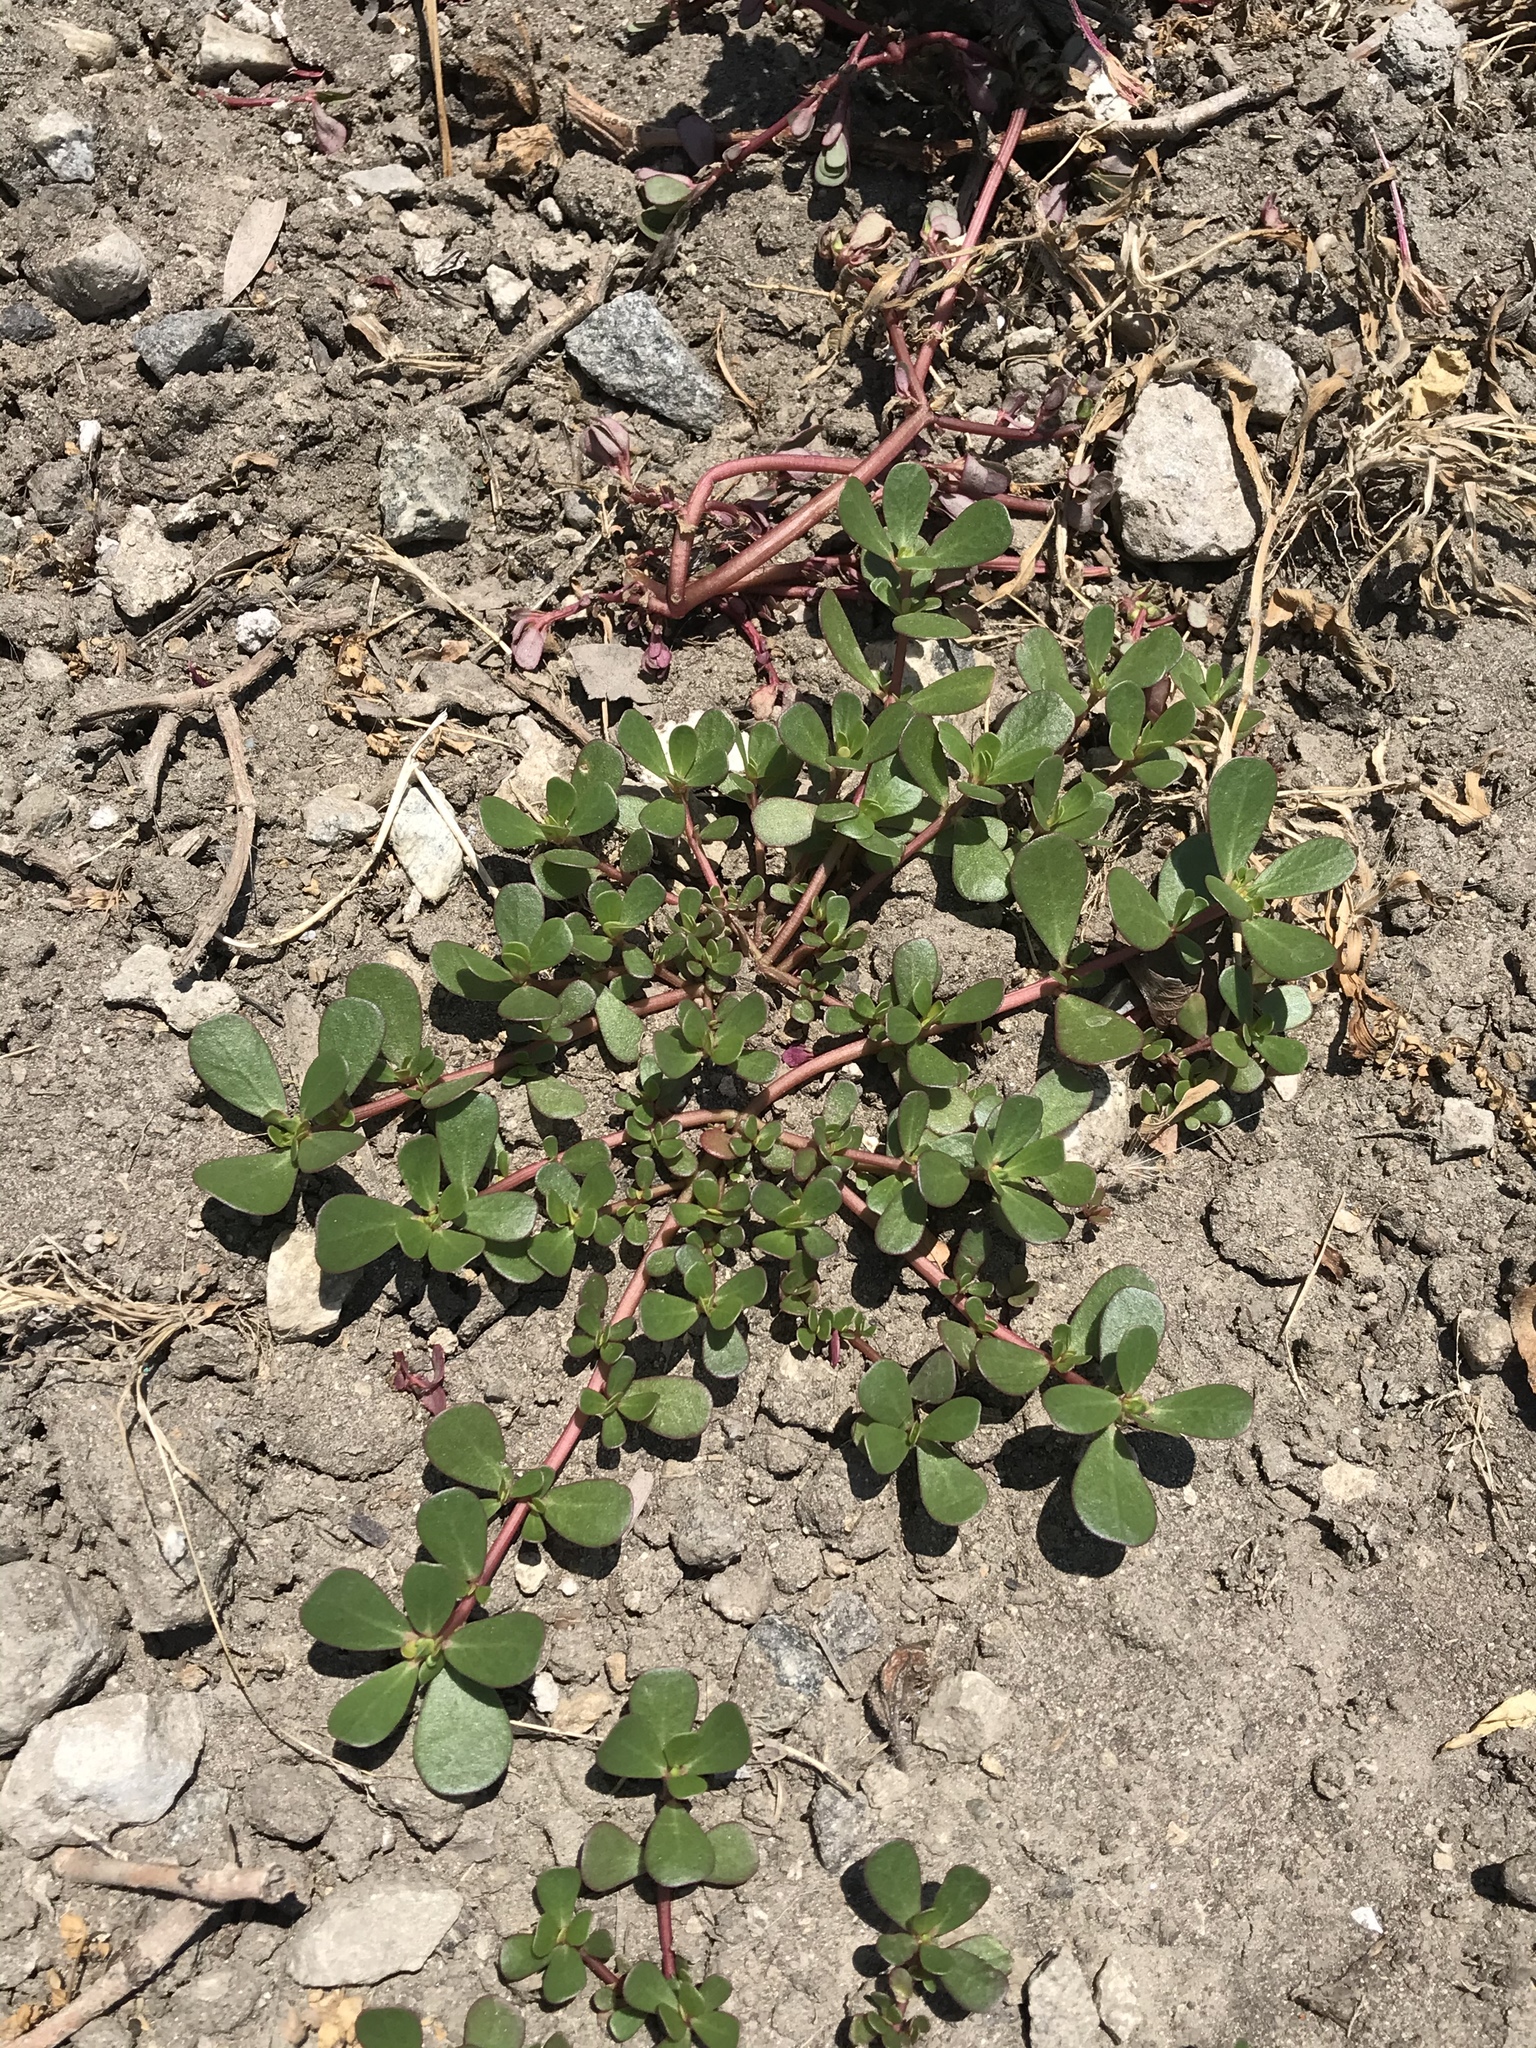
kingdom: Plantae
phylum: Tracheophyta
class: Magnoliopsida
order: Caryophyllales
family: Portulacaceae
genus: Portulaca
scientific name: Portulaca oleracea
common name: Common purslane
